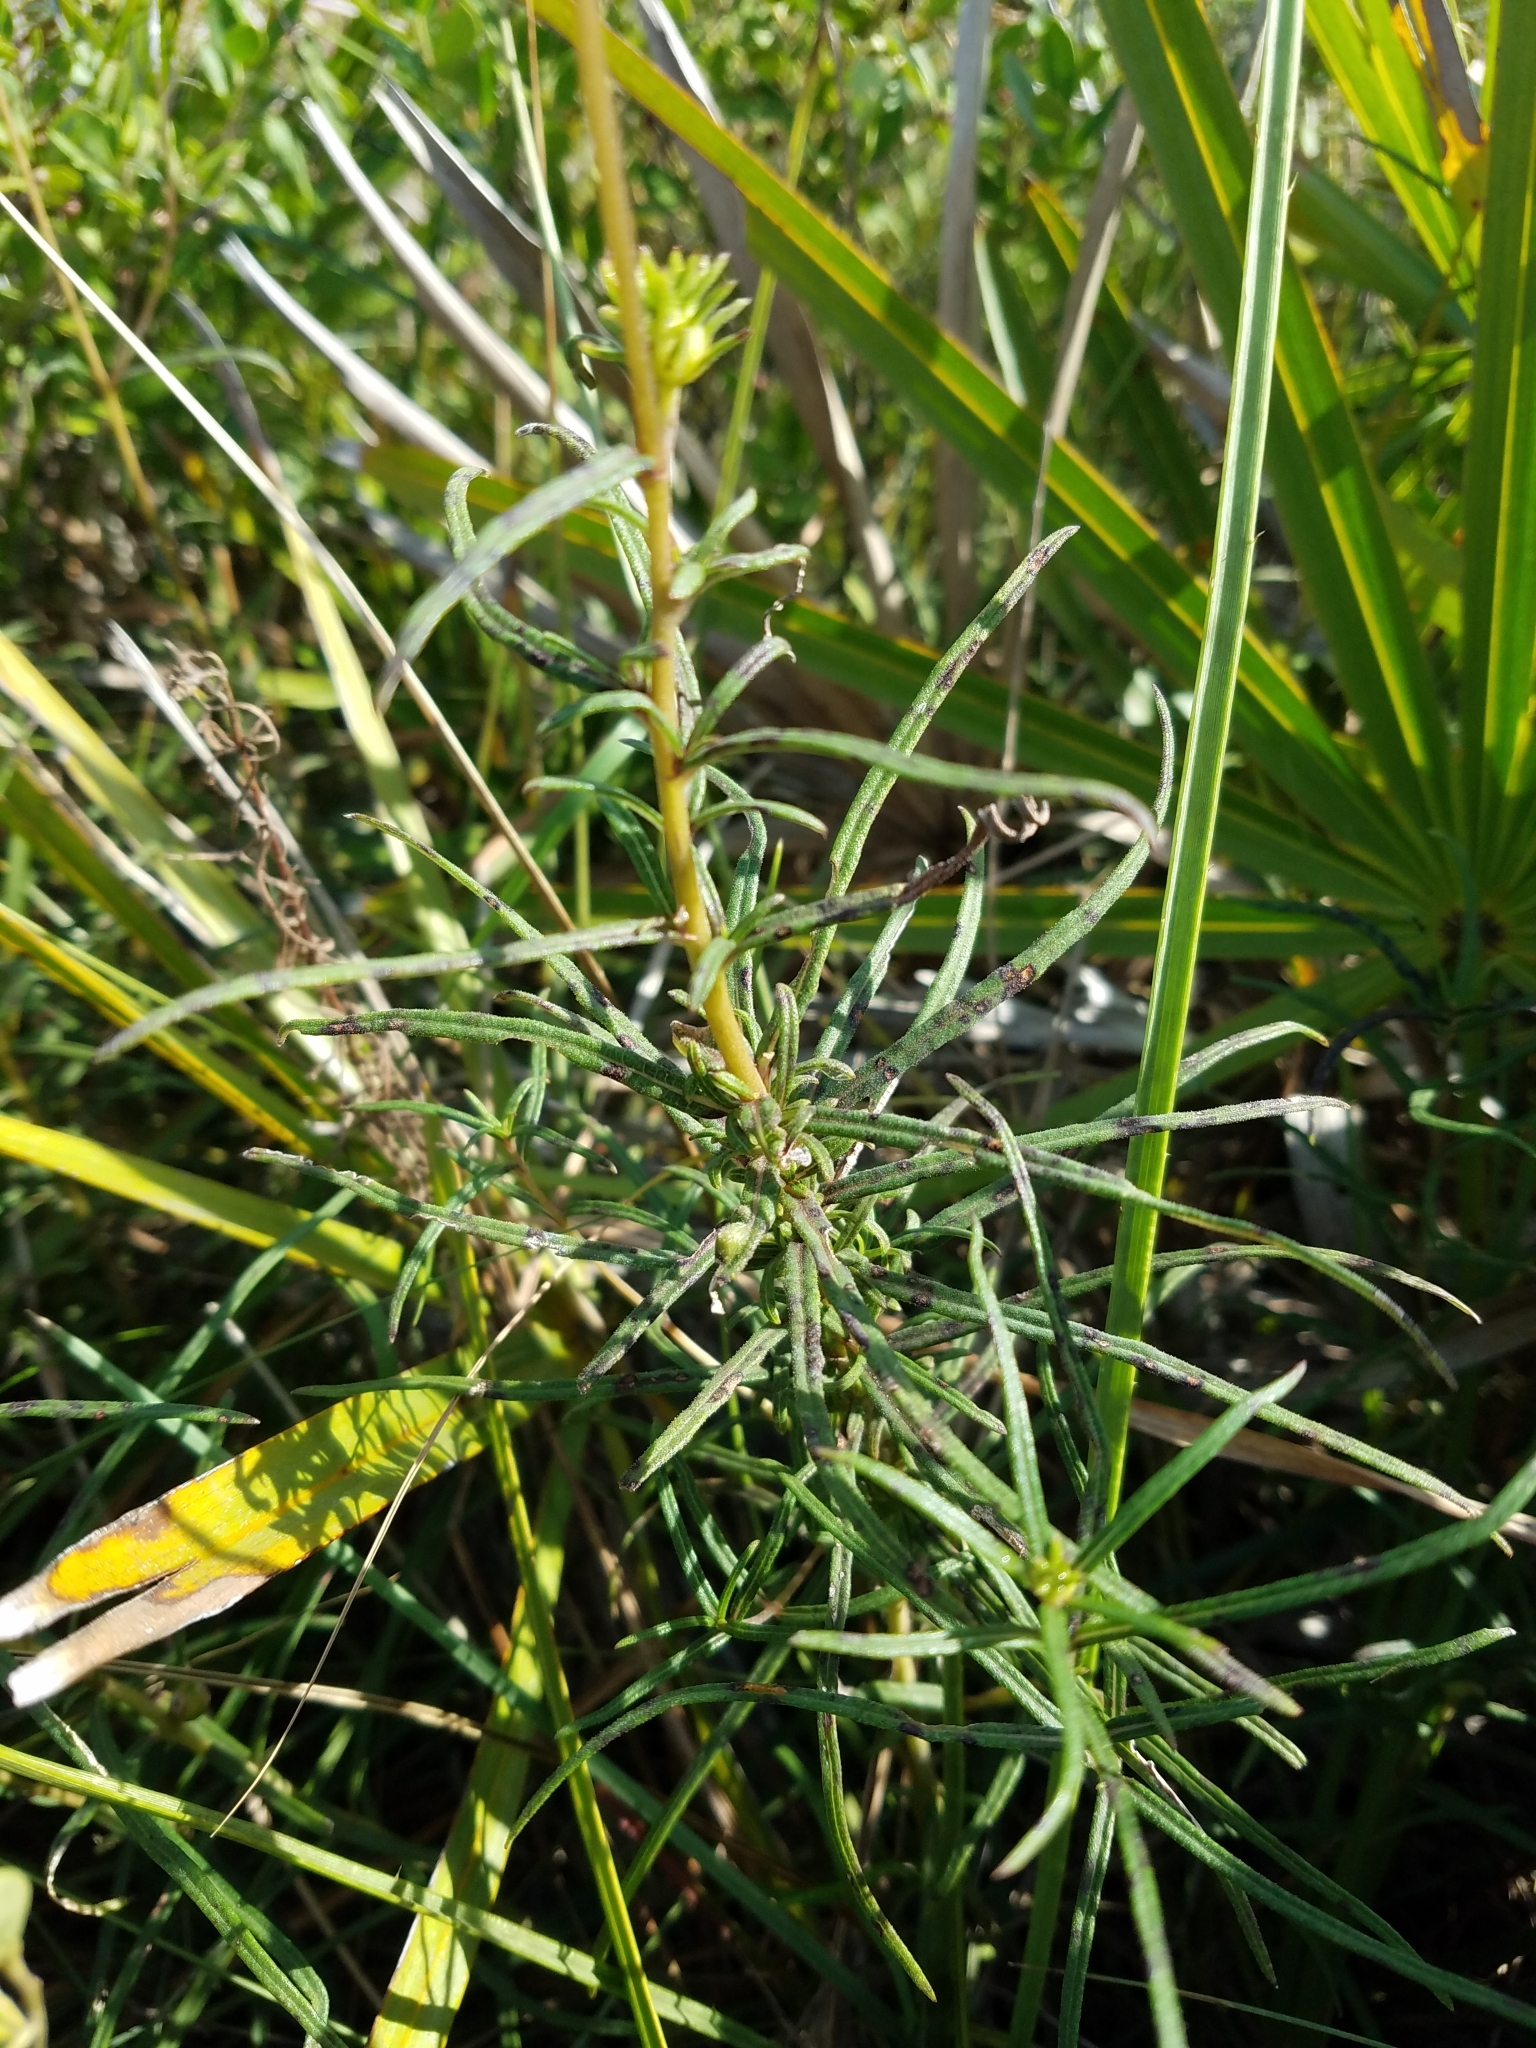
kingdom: Plantae
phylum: Tracheophyta
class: Magnoliopsida
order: Asterales
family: Asteraceae
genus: Helianthus
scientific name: Helianthus angustifolius
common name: Swamp sunflower
